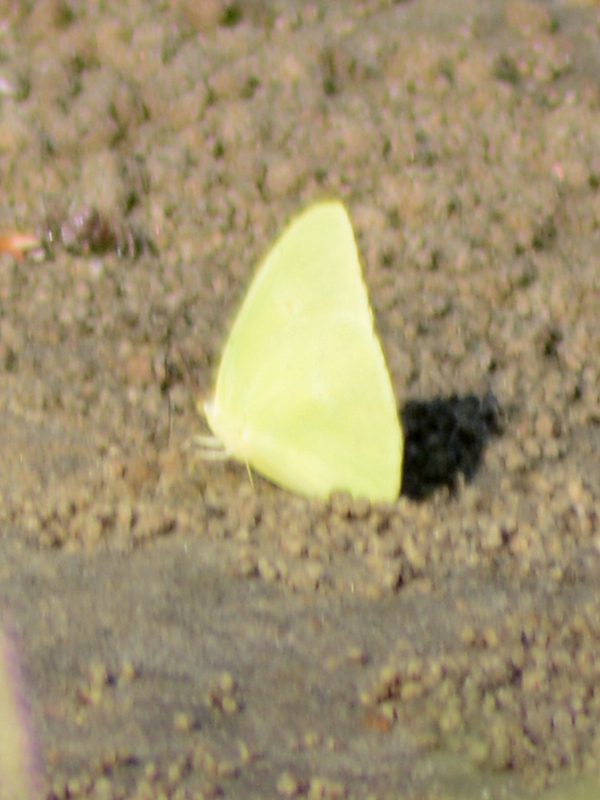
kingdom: Animalia
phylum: Arthropoda
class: Insecta
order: Lepidoptera
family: Pieridae
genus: Phoebis
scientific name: Phoebis marcellina
